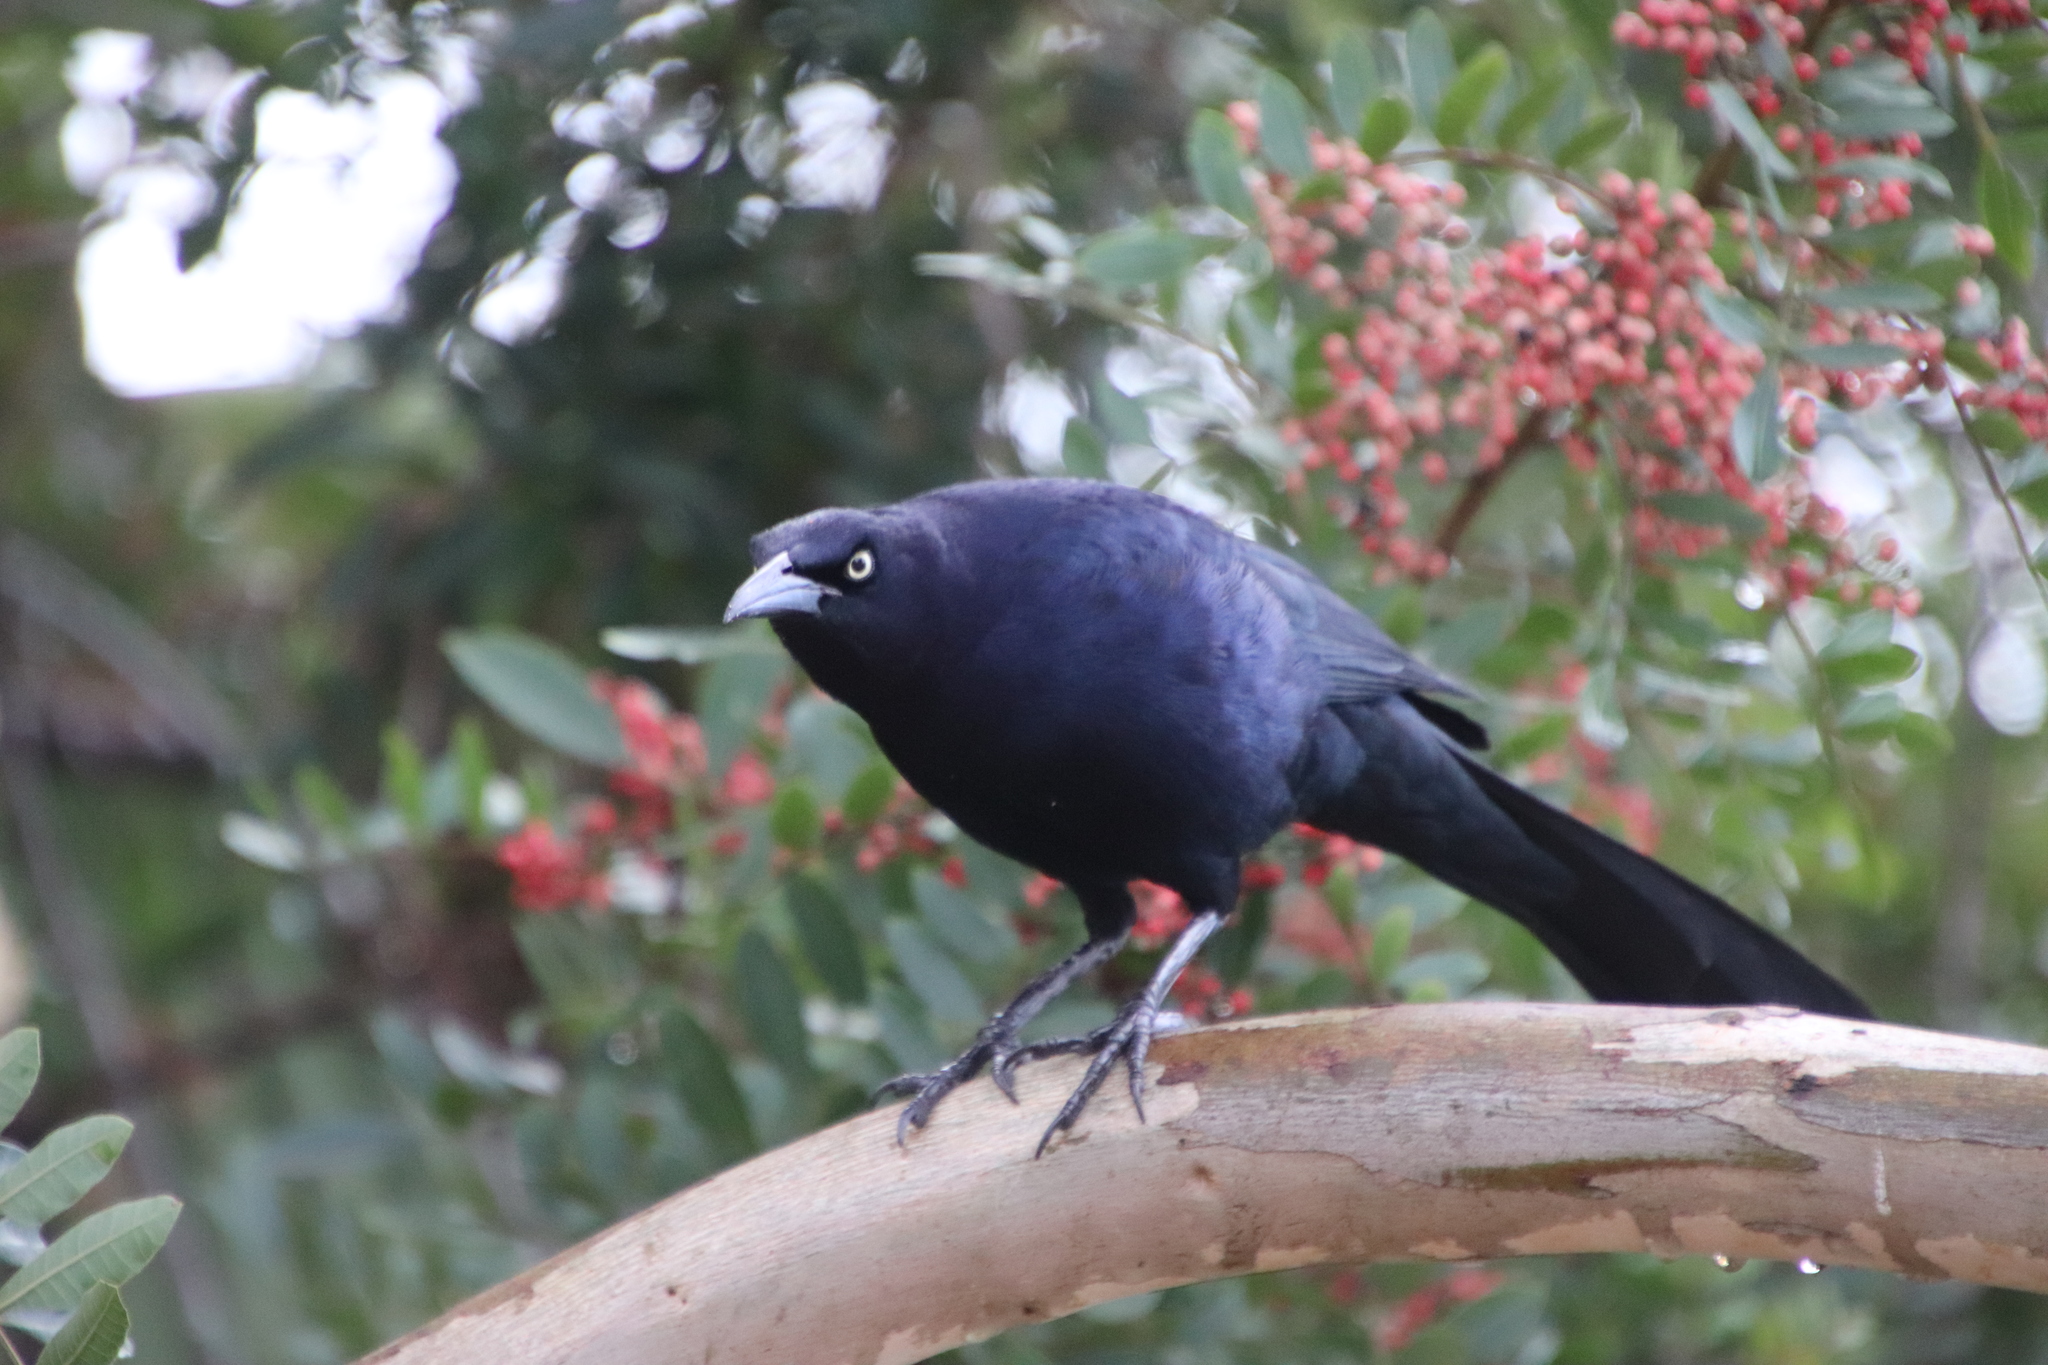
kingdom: Animalia
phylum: Chordata
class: Aves
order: Passeriformes
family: Icteridae
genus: Quiscalus
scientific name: Quiscalus mexicanus
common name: Great-tailed grackle
